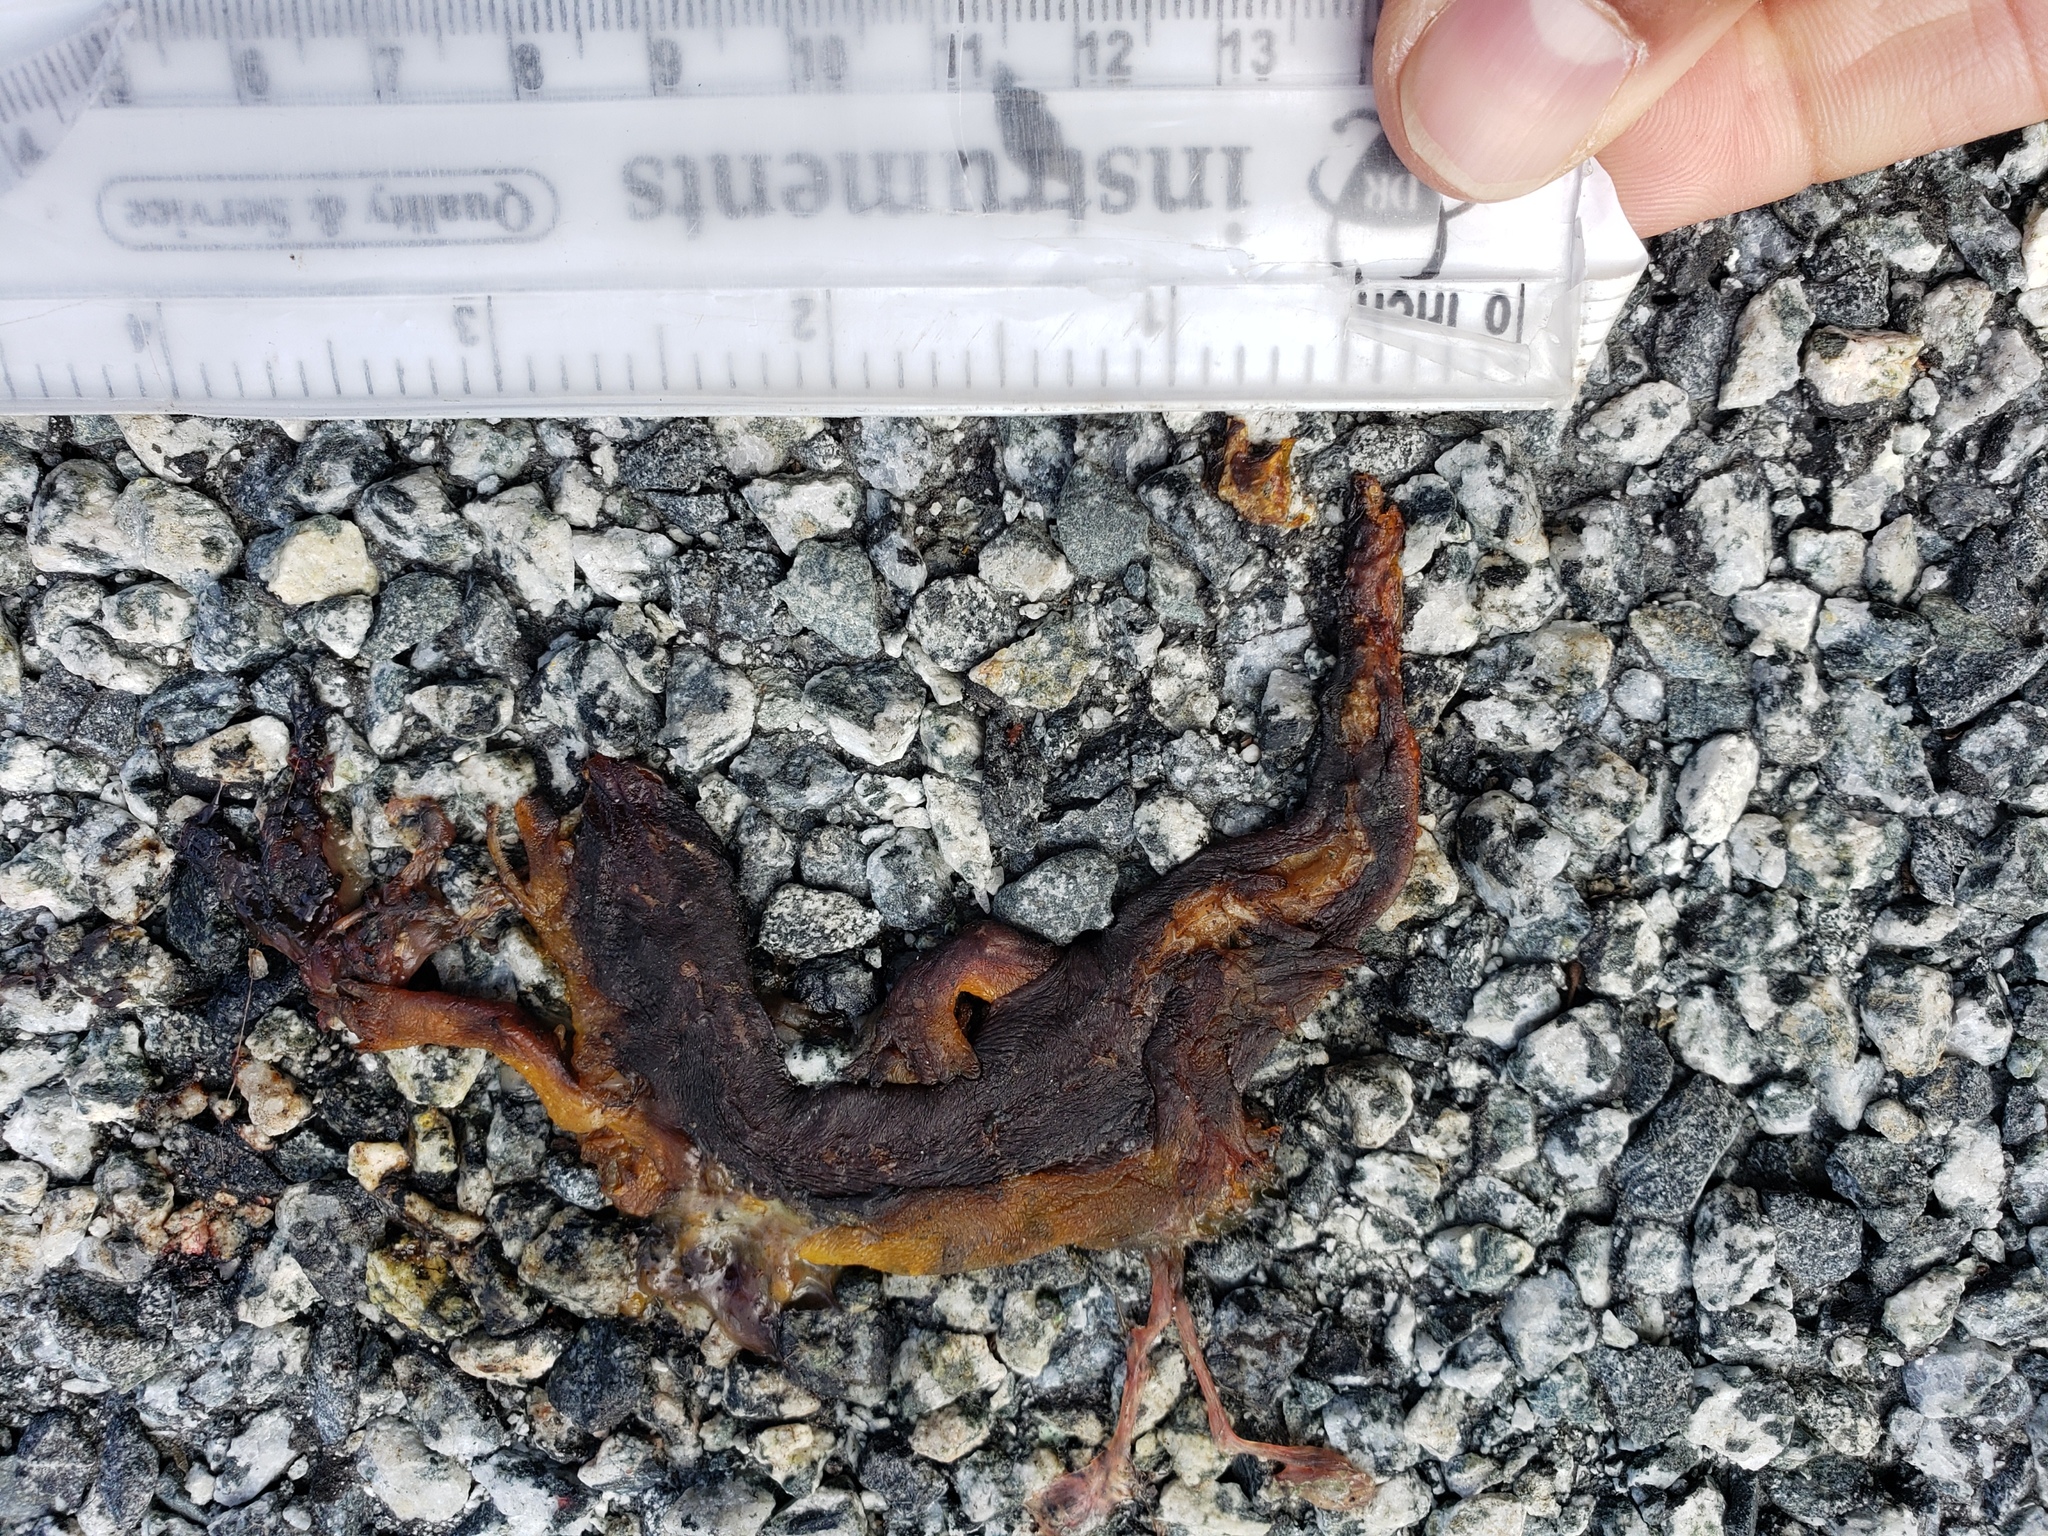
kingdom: Animalia
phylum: Chordata
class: Amphibia
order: Caudata
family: Salamandridae
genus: Taricha
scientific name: Taricha
